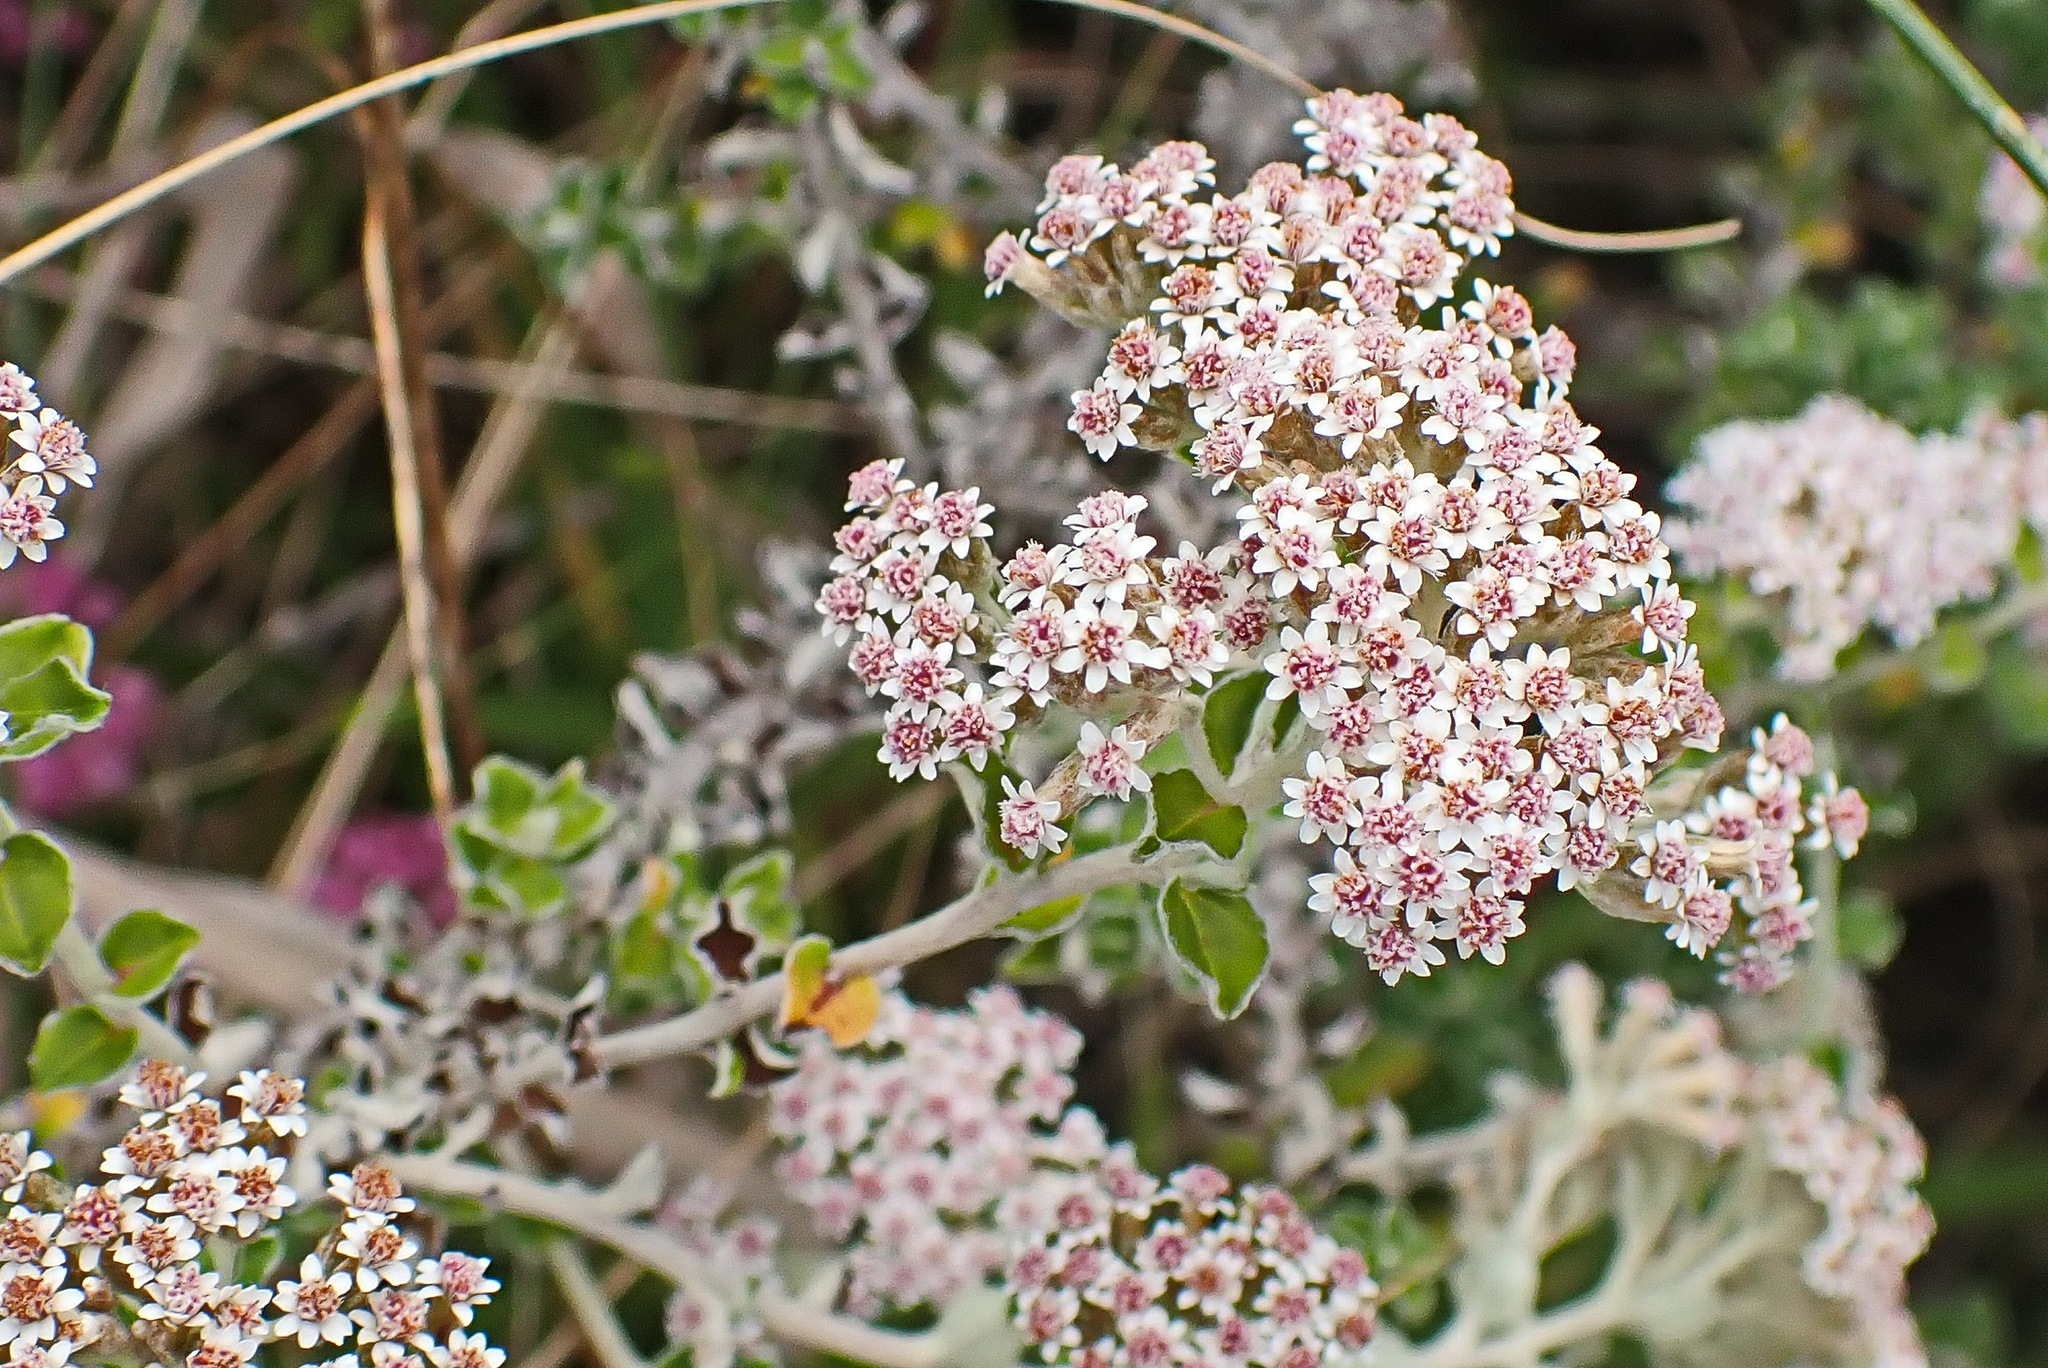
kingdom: Plantae
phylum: Tracheophyta
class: Magnoliopsida
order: Asterales
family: Asteraceae
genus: Plecostachys
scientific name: Plecostachys serpyllifolia
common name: Petite licorice
